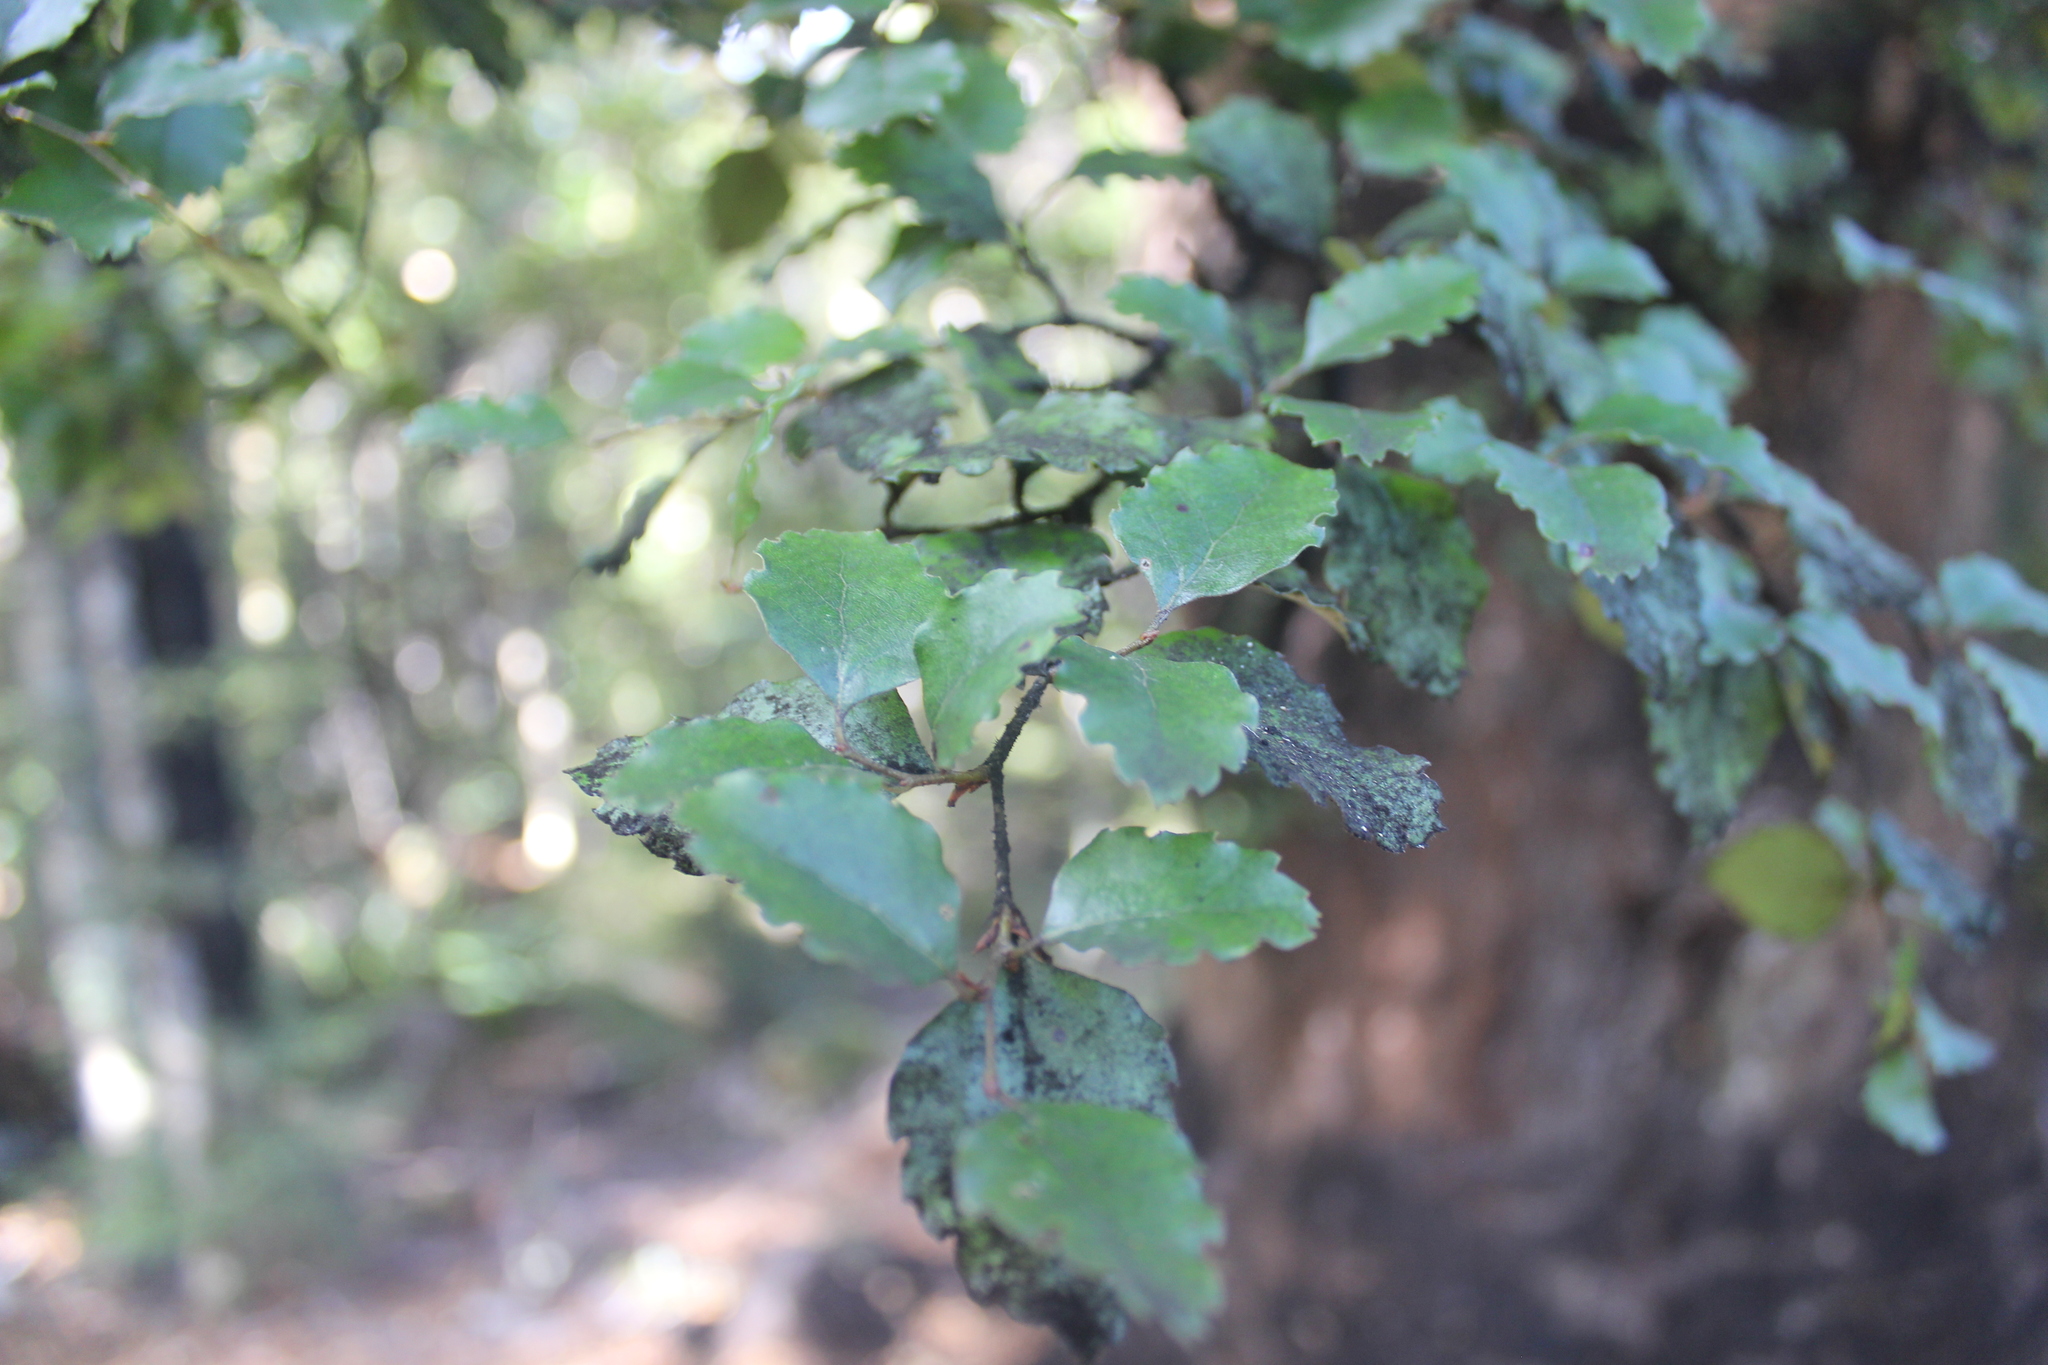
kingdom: Plantae
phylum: Tracheophyta
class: Magnoliopsida
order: Fagales
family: Nothofagaceae
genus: Nothofagus
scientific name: Nothofagus fusca
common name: Red beech
